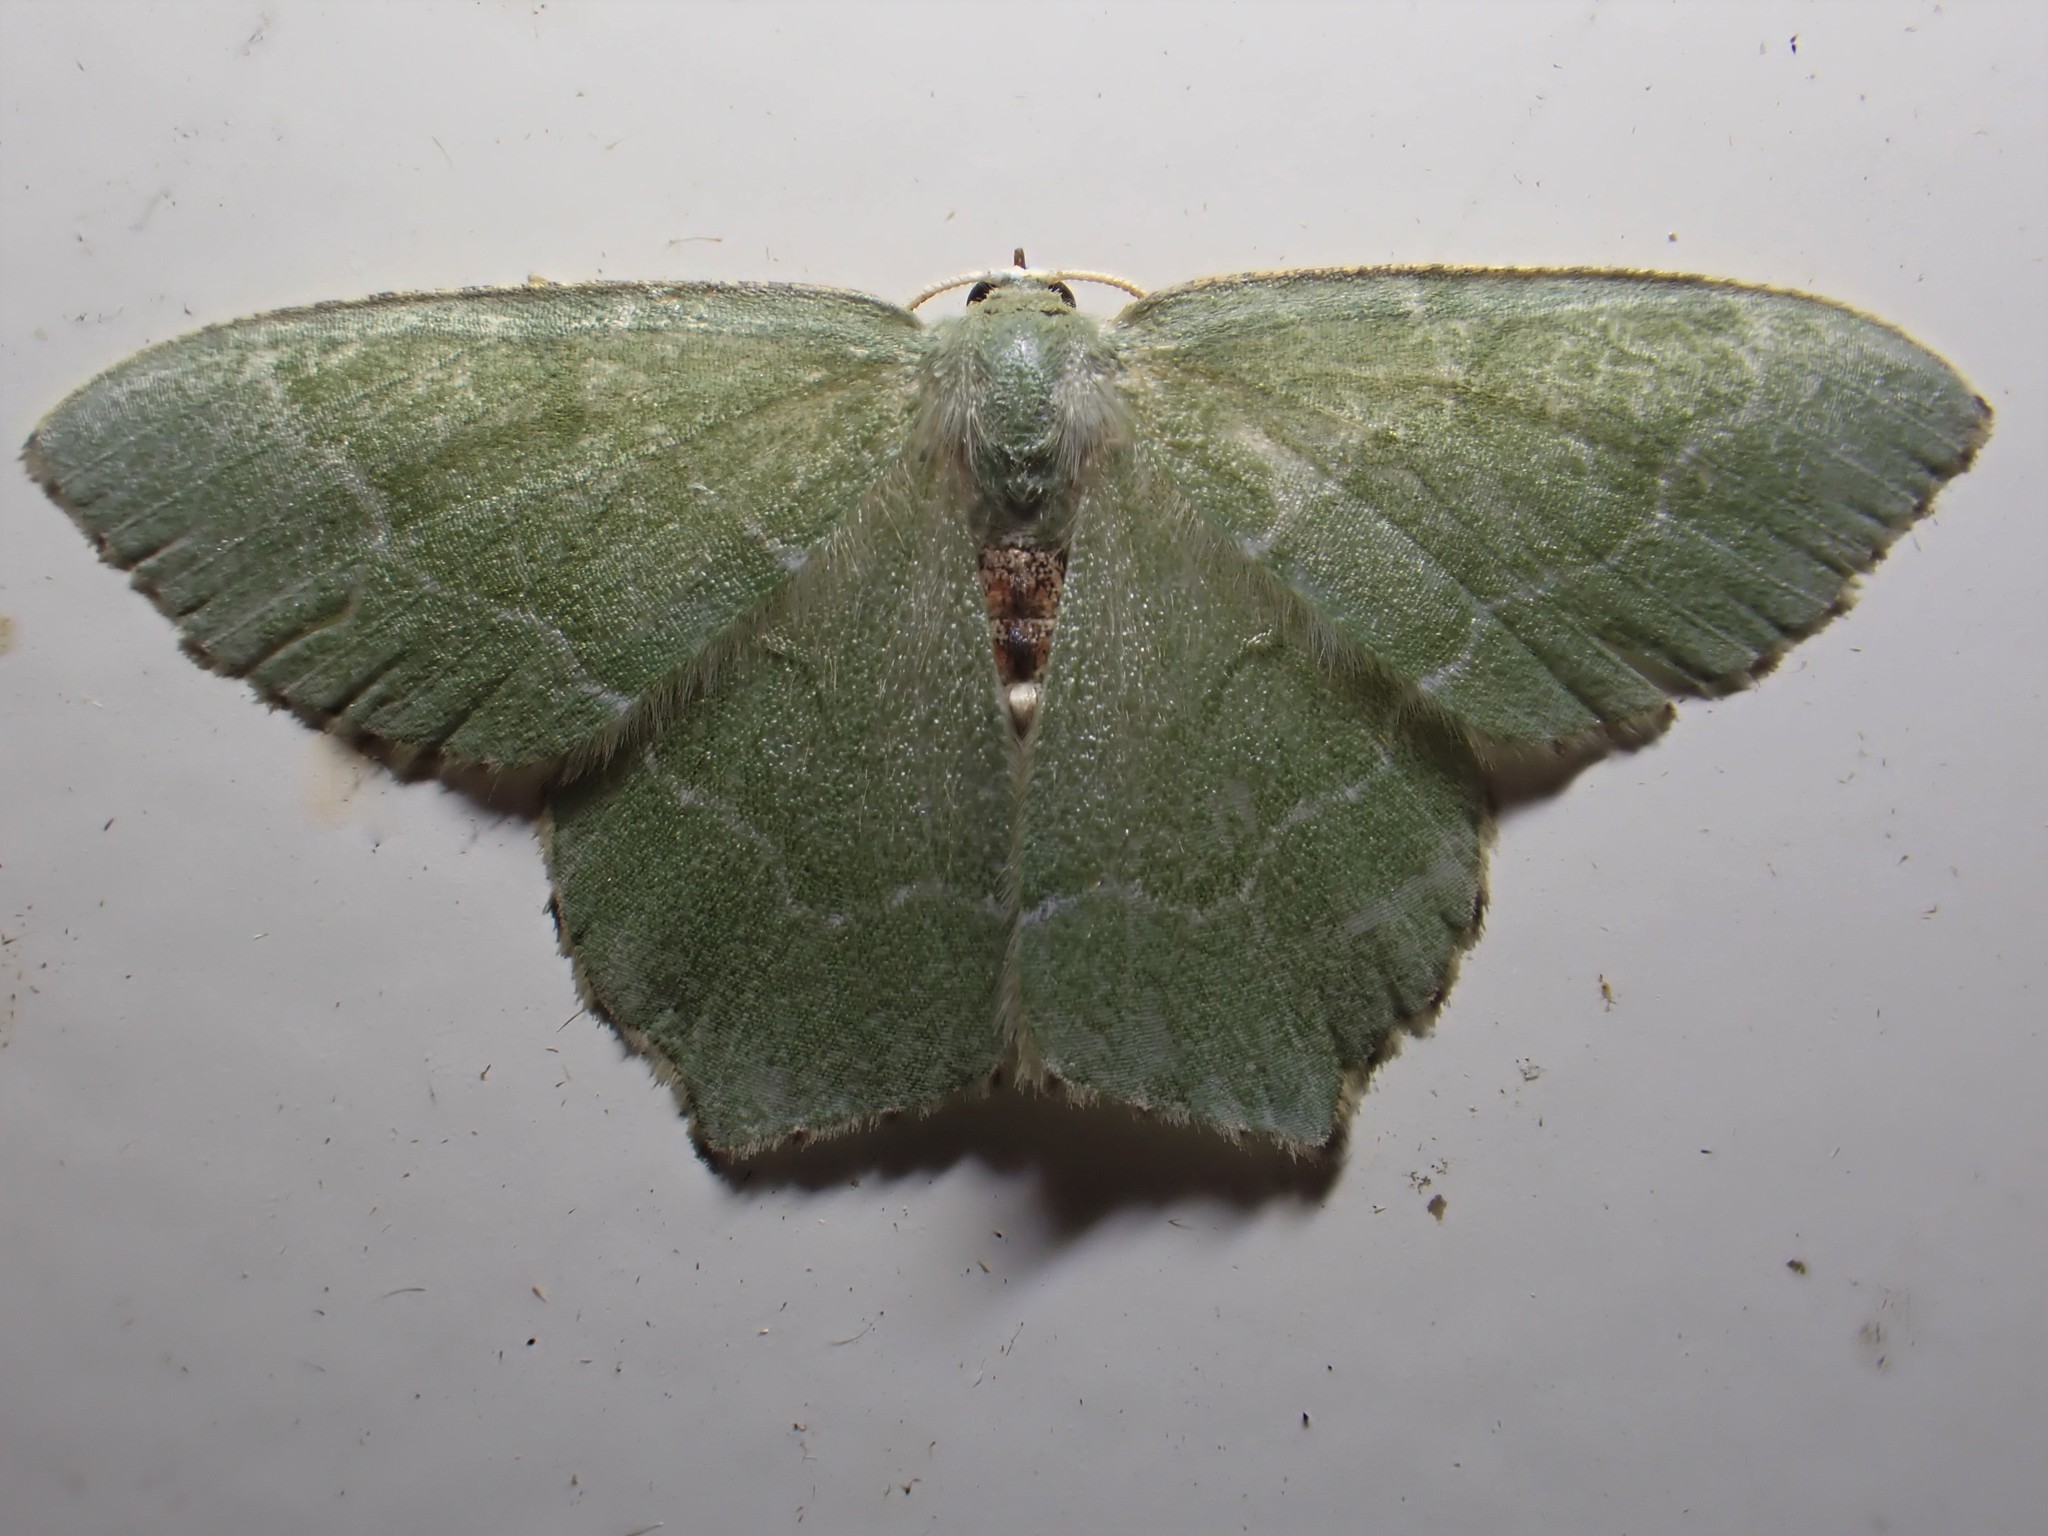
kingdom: Animalia
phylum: Arthropoda
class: Insecta
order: Lepidoptera
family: Geometridae
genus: Hemithea
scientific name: Hemithea aestivaria
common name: Common emerald
